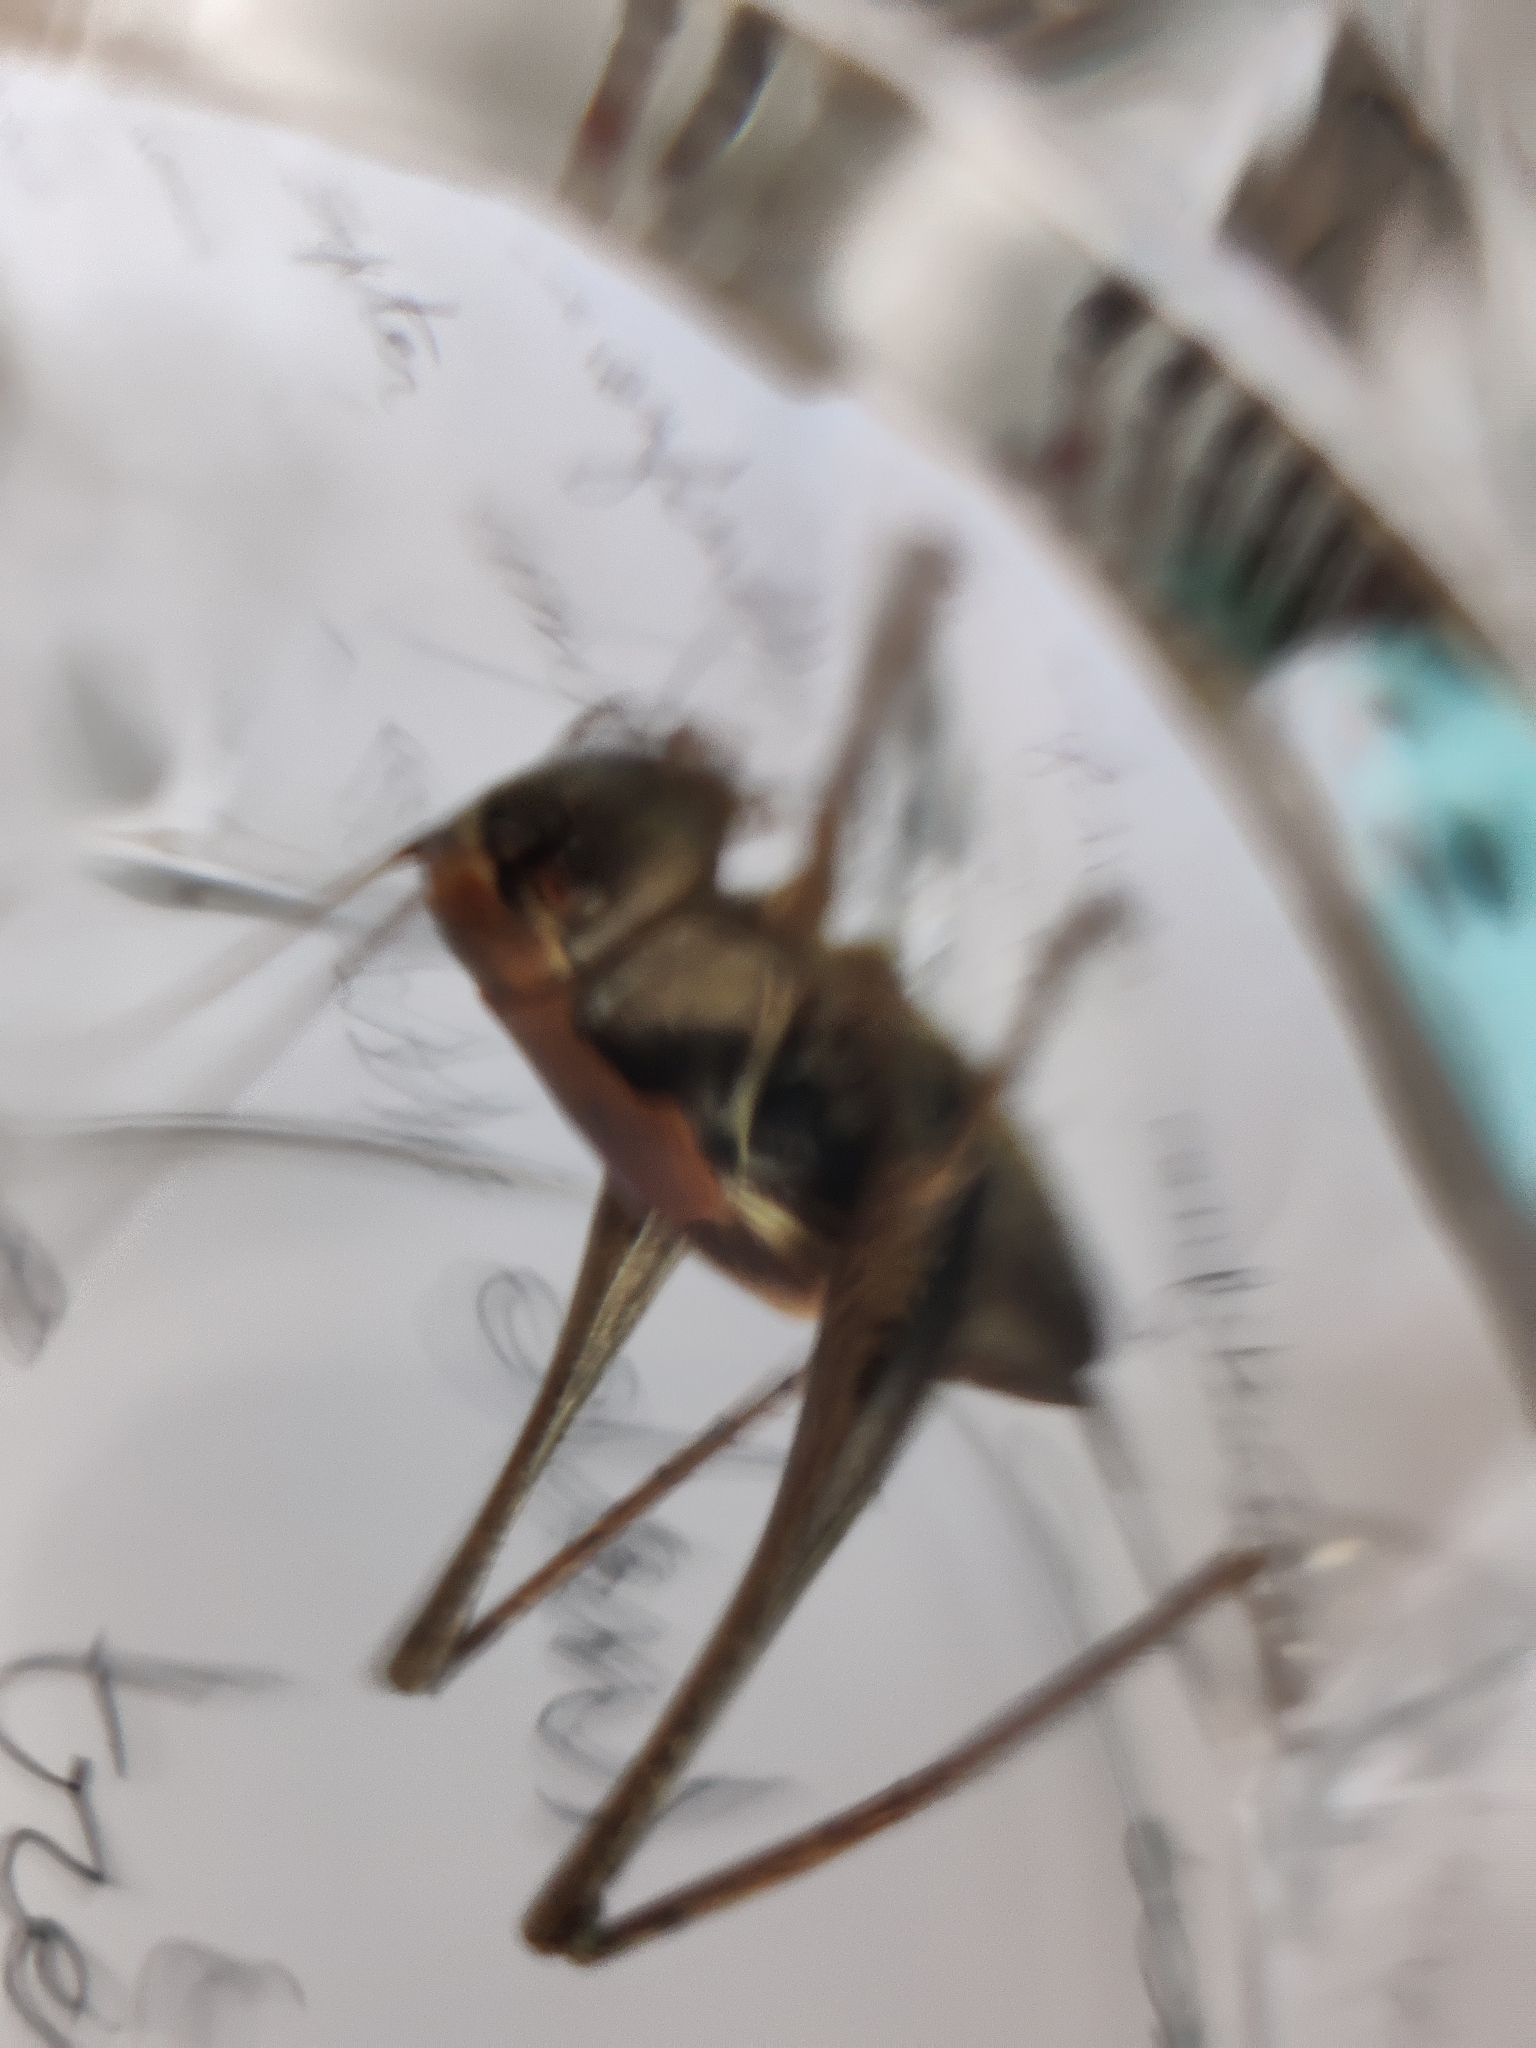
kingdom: Animalia
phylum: Arthropoda
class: Insecta
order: Orthoptera
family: Tettigoniidae
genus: Pholidoptera
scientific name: Pholidoptera griseoaptera
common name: Dark bush-cricket
